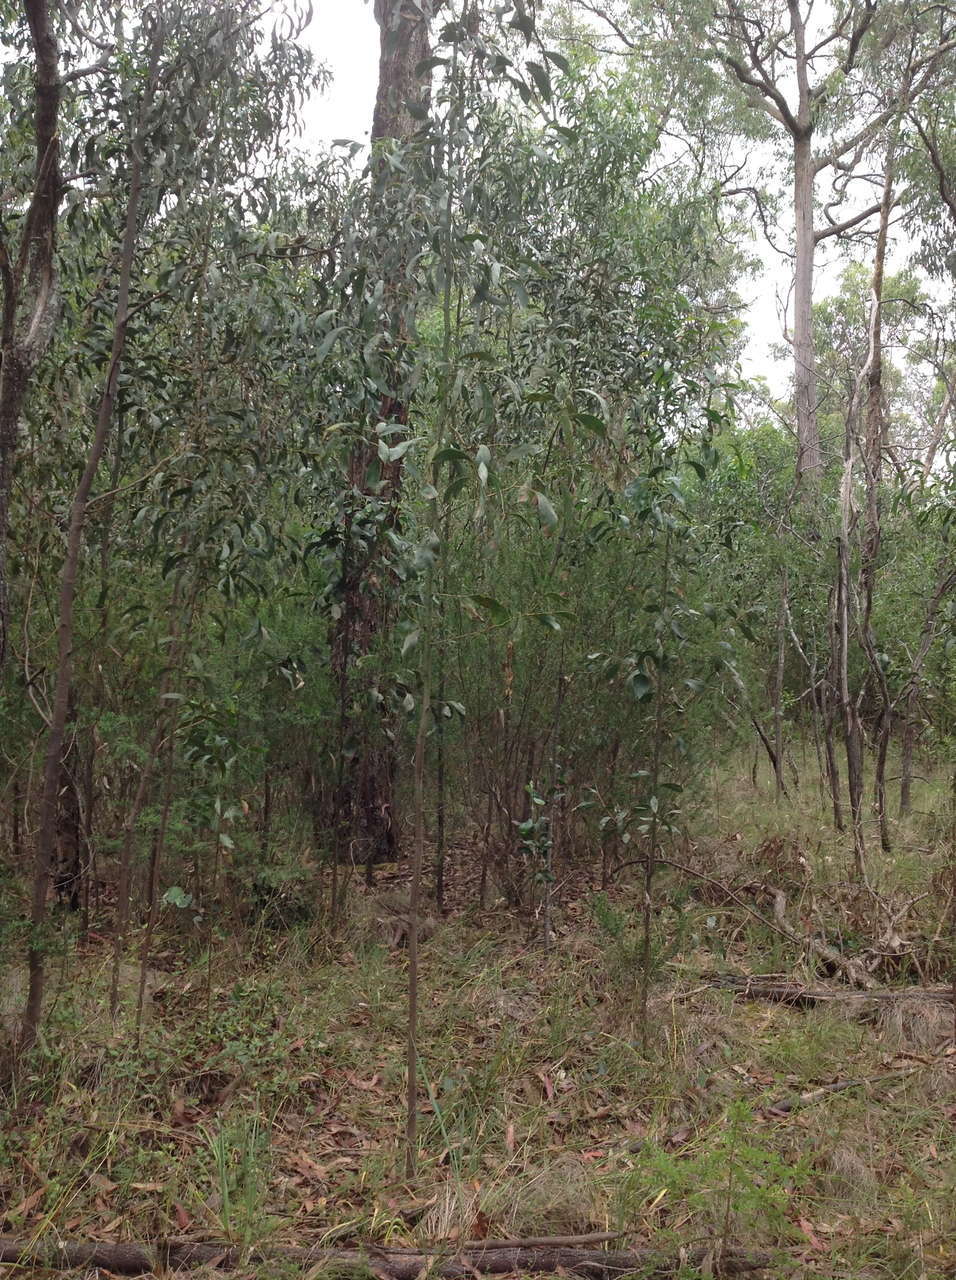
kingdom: Plantae
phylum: Tracheophyta
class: Magnoliopsida
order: Fabales
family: Fabaceae
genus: Acacia
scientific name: Acacia pycnantha
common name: Golden wattle
